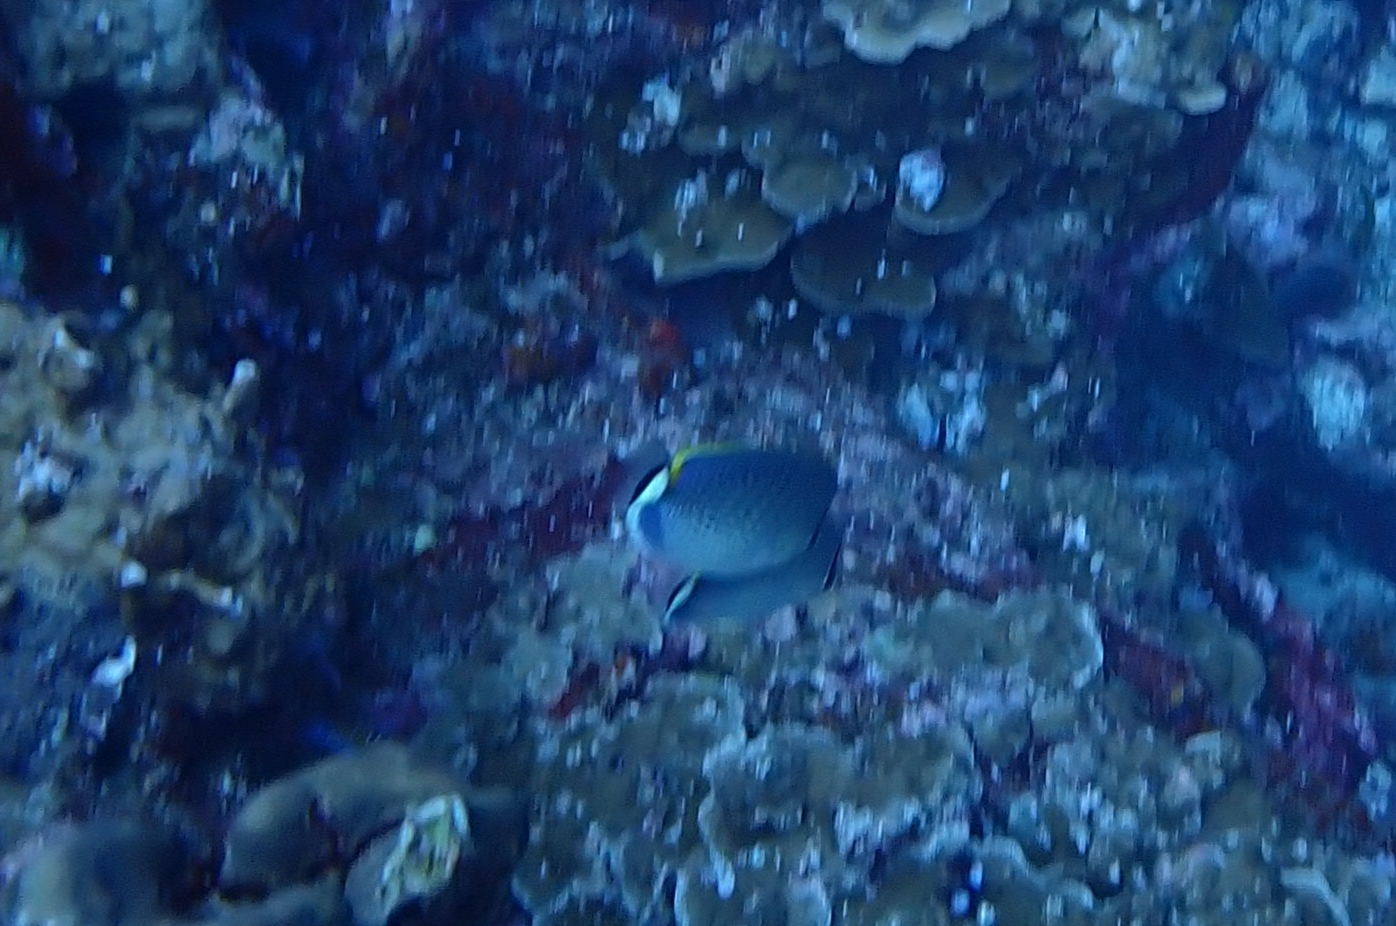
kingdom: Animalia
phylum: Chordata
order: Perciformes
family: Chaetodontidae
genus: Chaetodon
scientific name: Chaetodon guttatissimus
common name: Spotted butterflyfish
